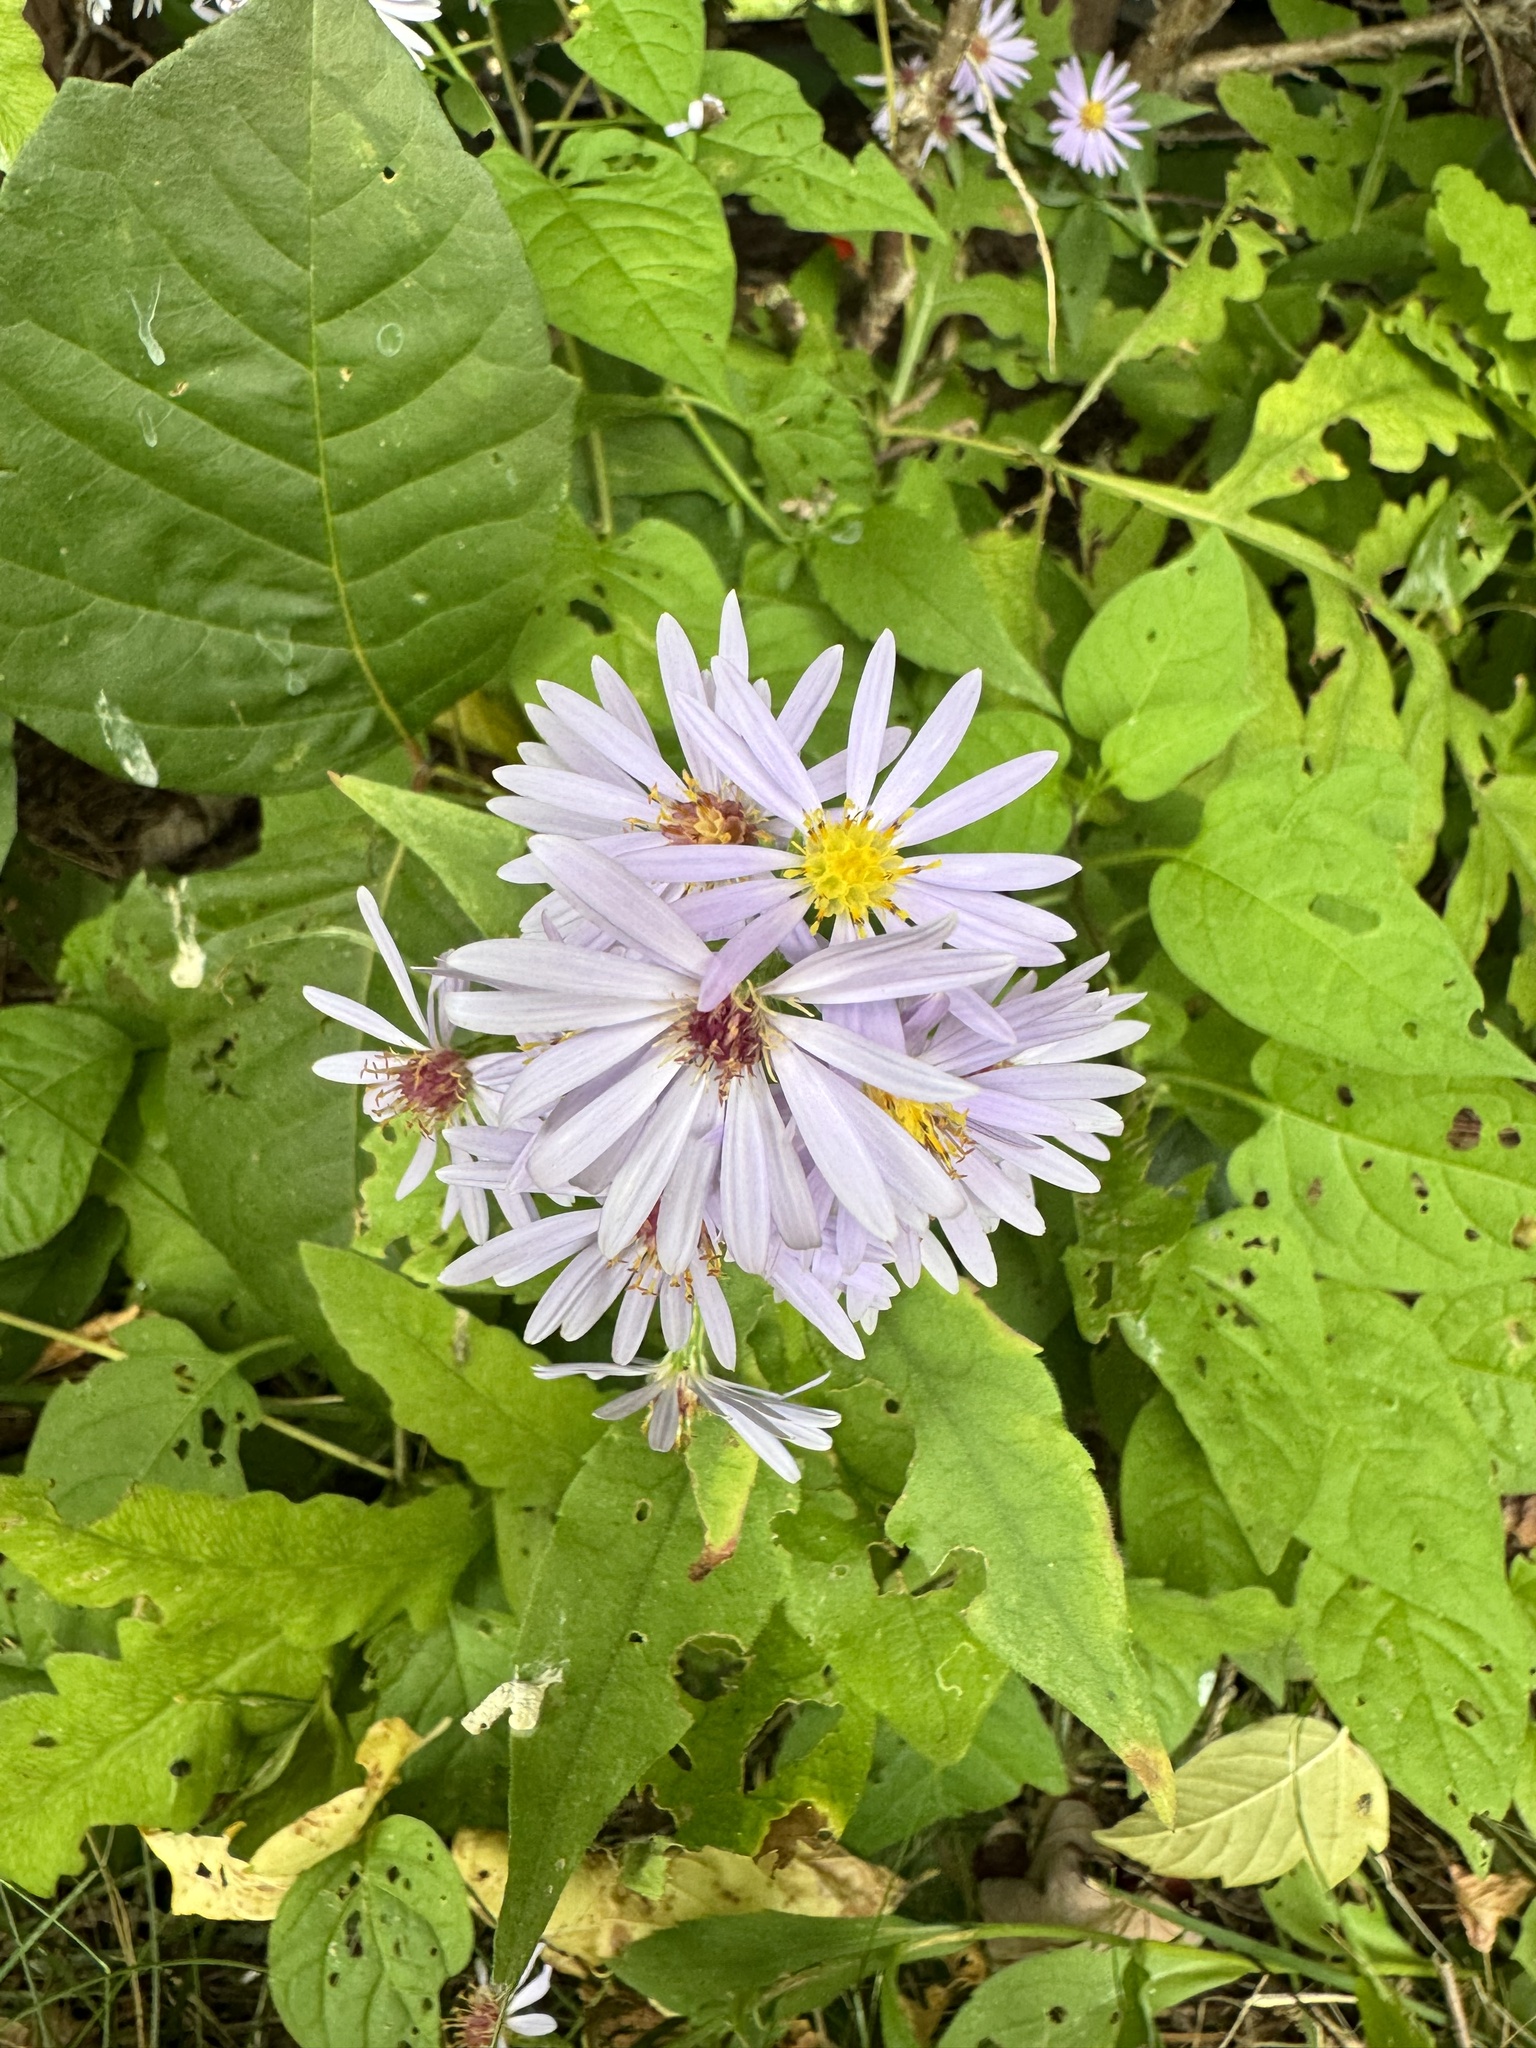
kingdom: Plantae
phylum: Tracheophyta
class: Magnoliopsida
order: Asterales
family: Asteraceae
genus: Eurybia
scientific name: Eurybia macrophylla
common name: Big-leaved aster
